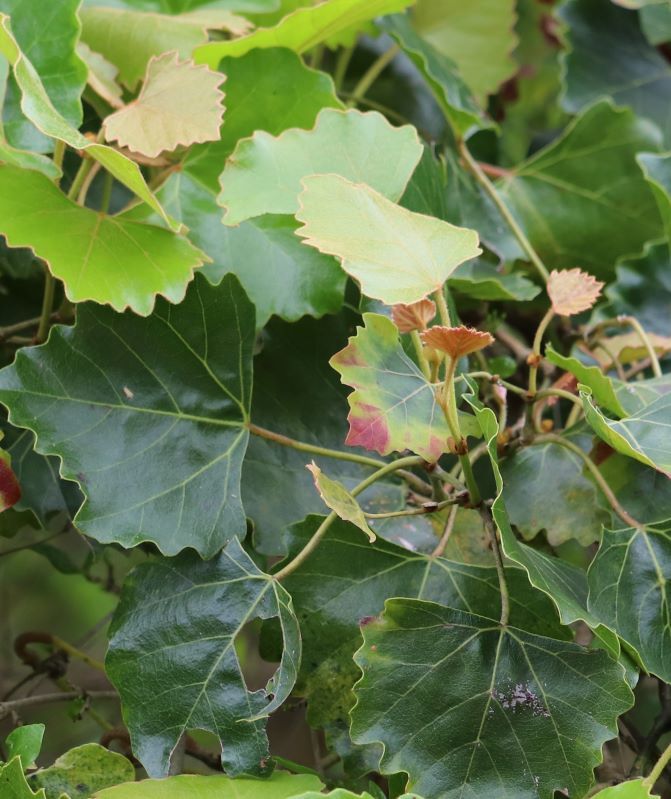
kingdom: Plantae
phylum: Tracheophyta
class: Magnoliopsida
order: Vitales
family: Vitaceae
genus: Rhoicissus
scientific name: Rhoicissus tomentosa
